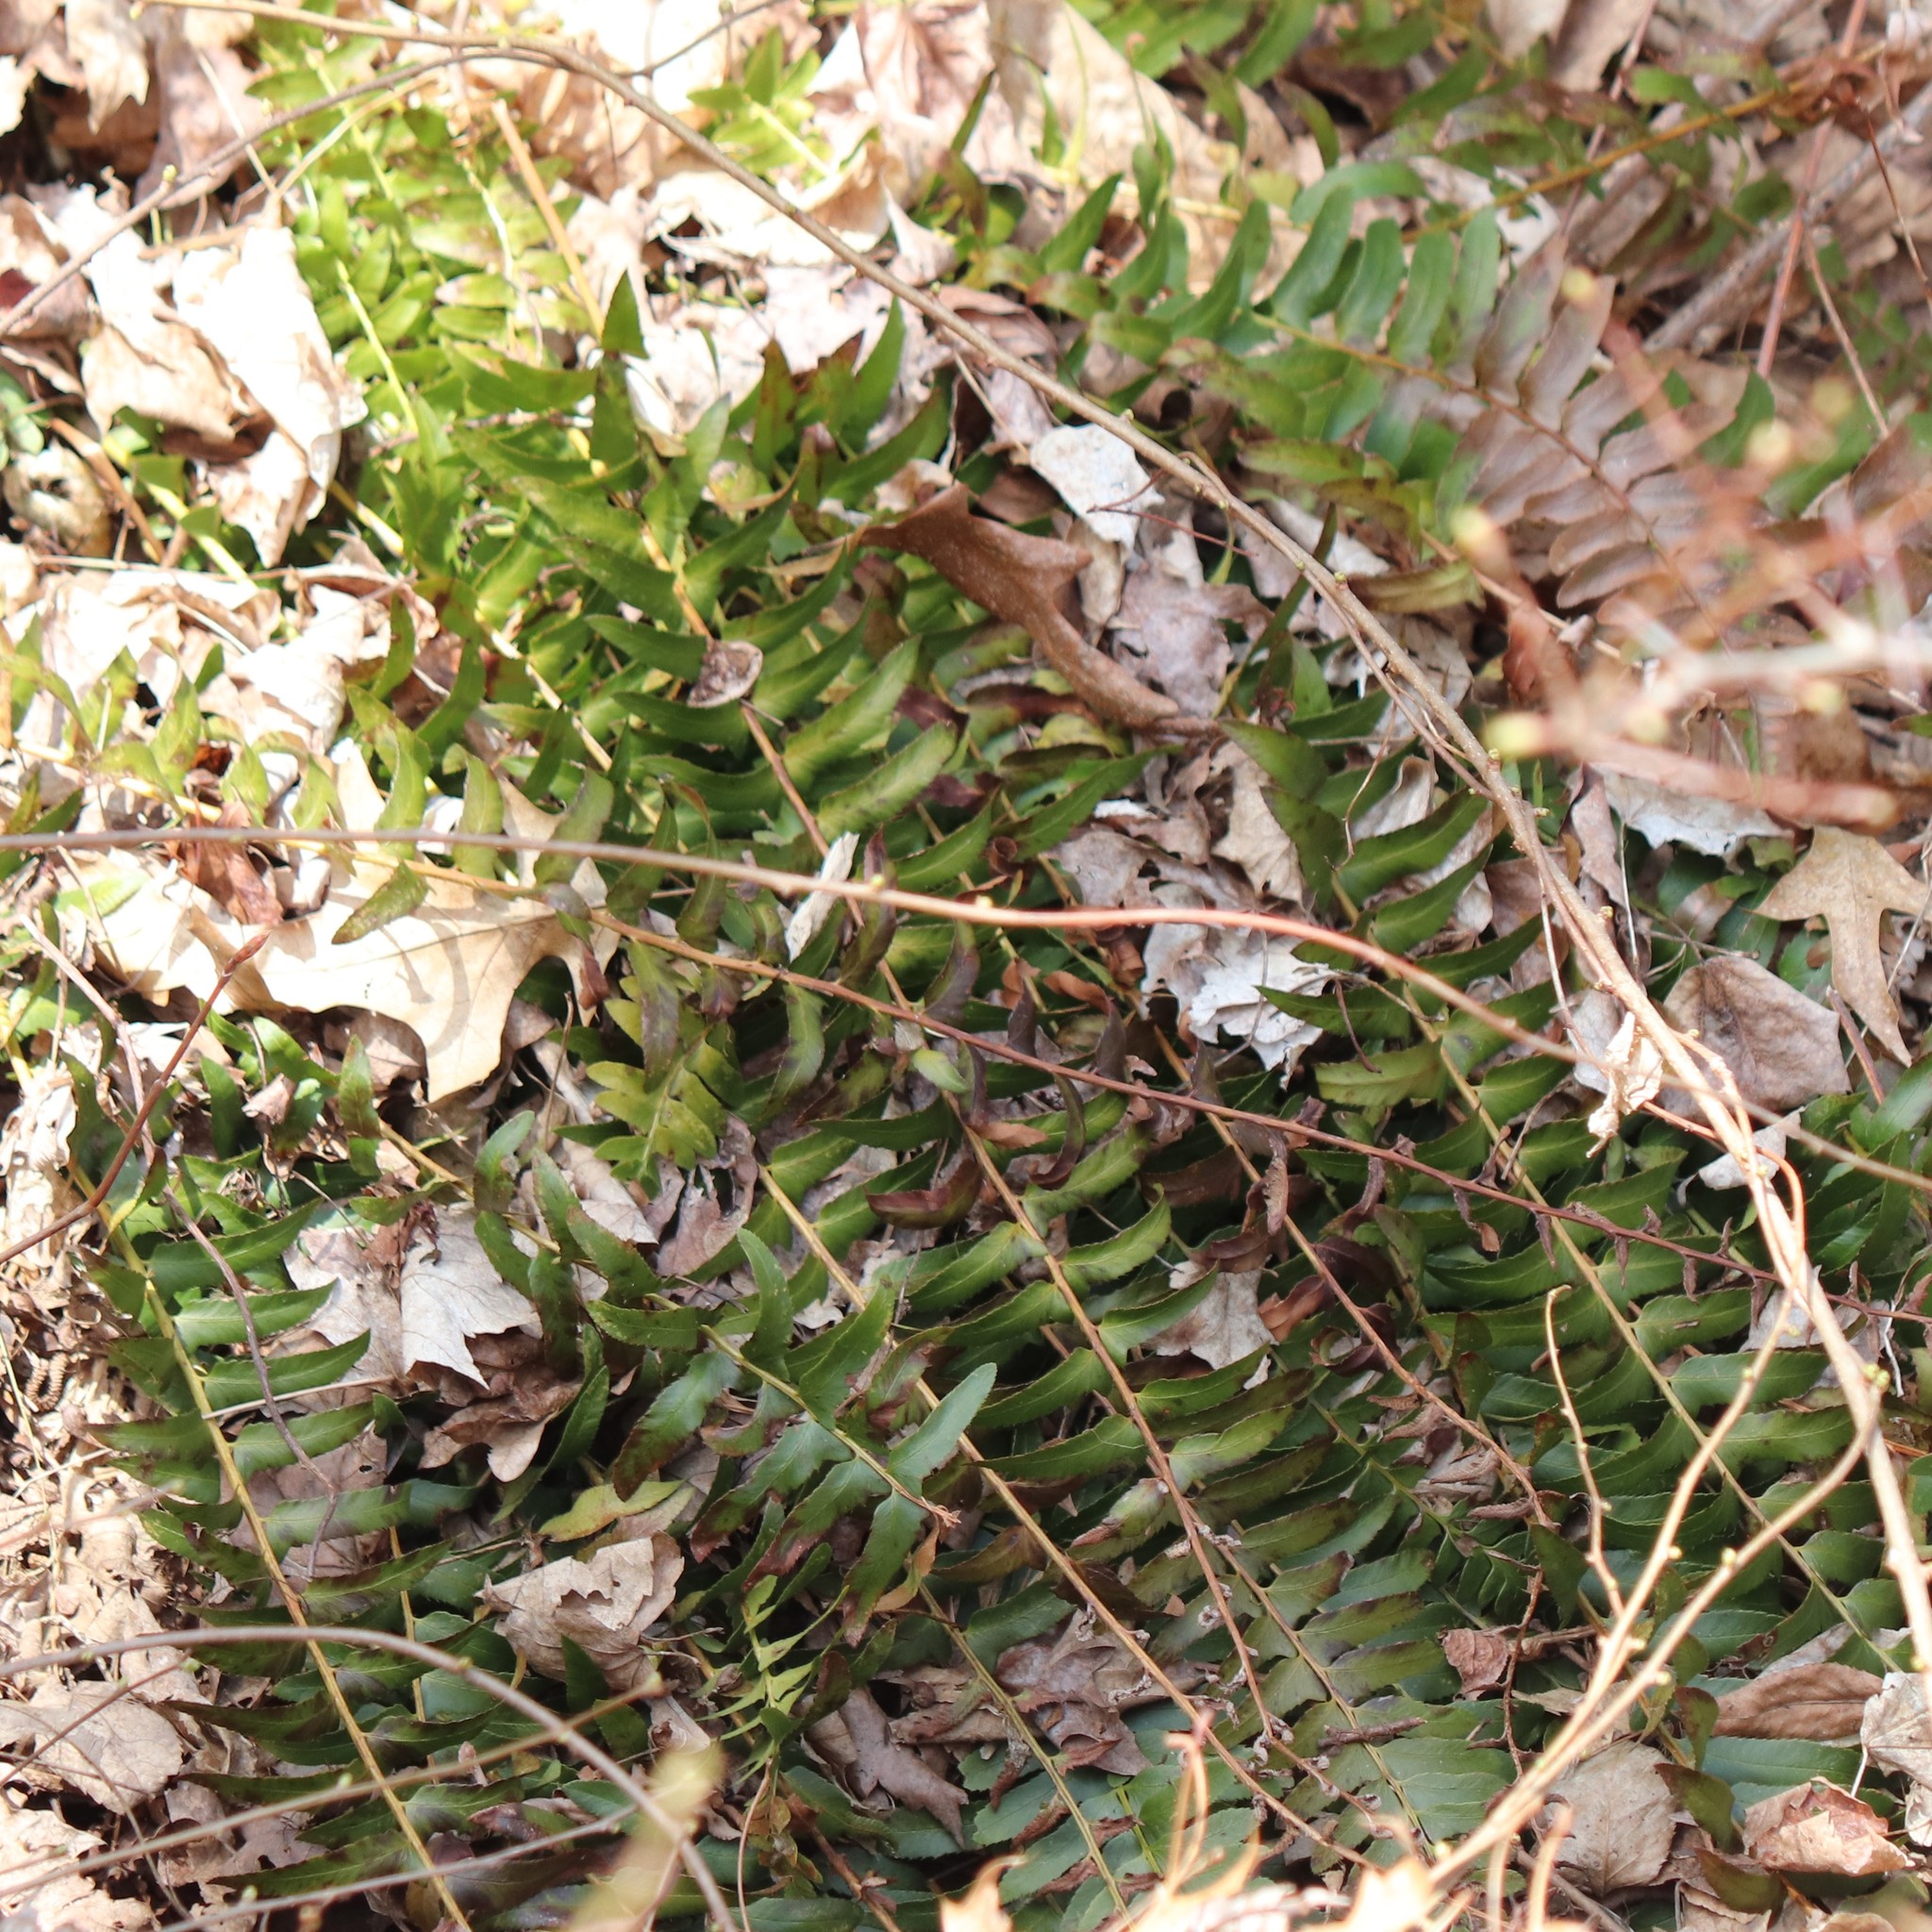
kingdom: Plantae
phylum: Tracheophyta
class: Polypodiopsida
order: Polypodiales
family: Dryopteridaceae
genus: Polystichum
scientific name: Polystichum acrostichoides
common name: Christmas fern
